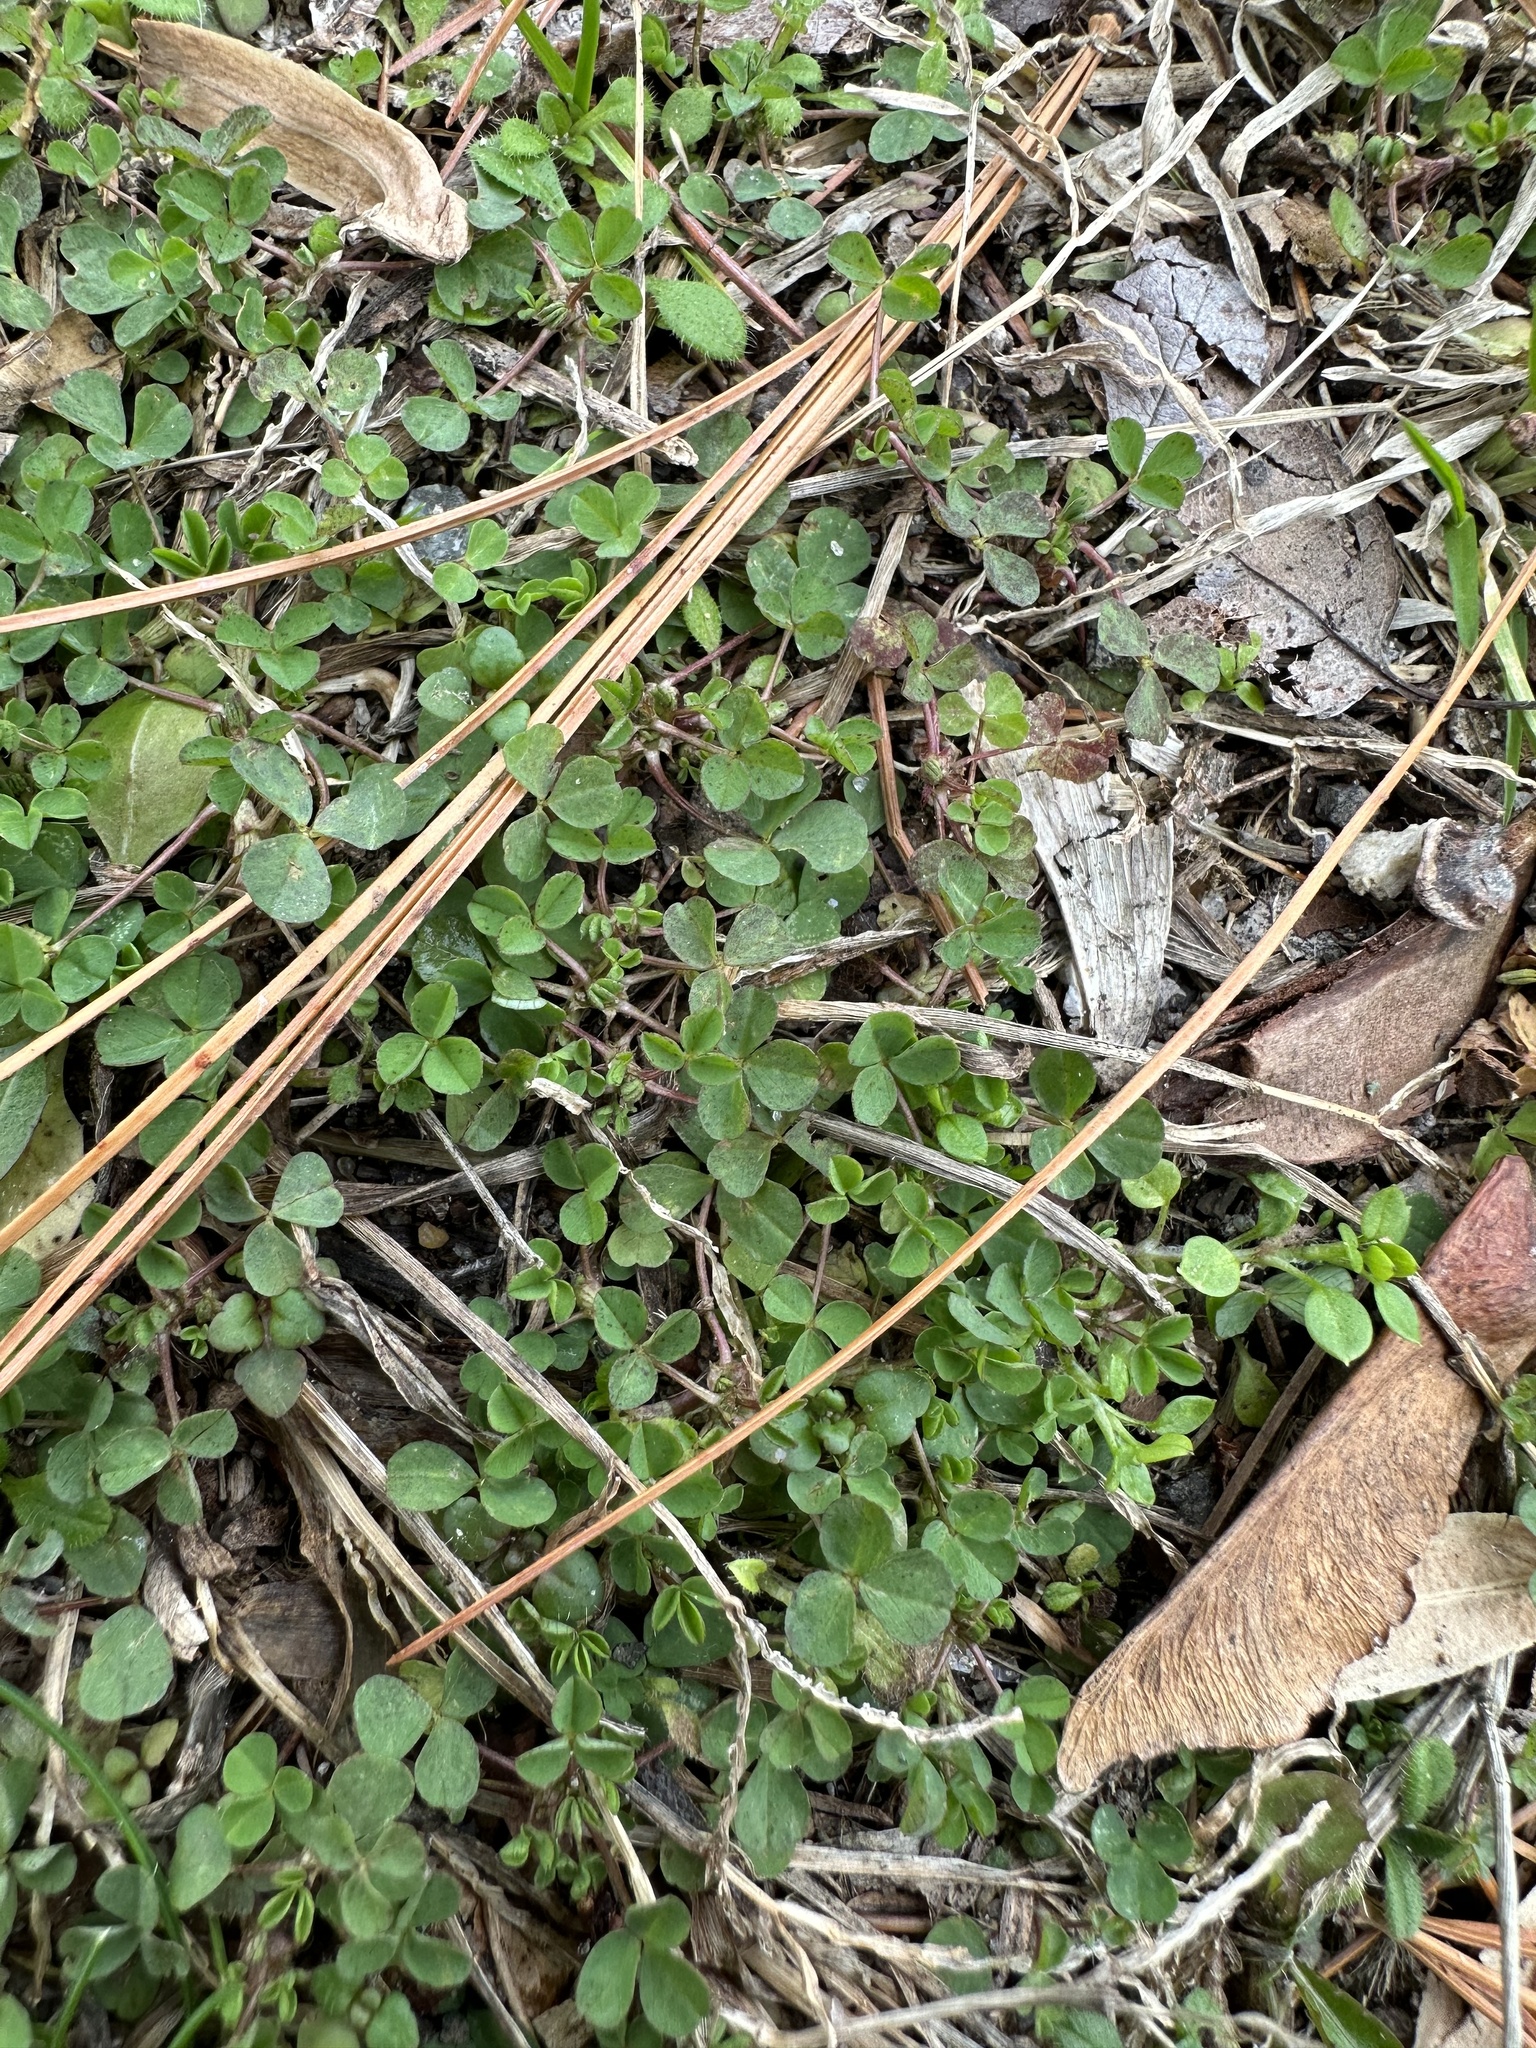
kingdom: Plantae
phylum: Tracheophyta
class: Magnoliopsida
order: Fabales
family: Fabaceae
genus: Trifolium
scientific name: Trifolium repens
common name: White clover
